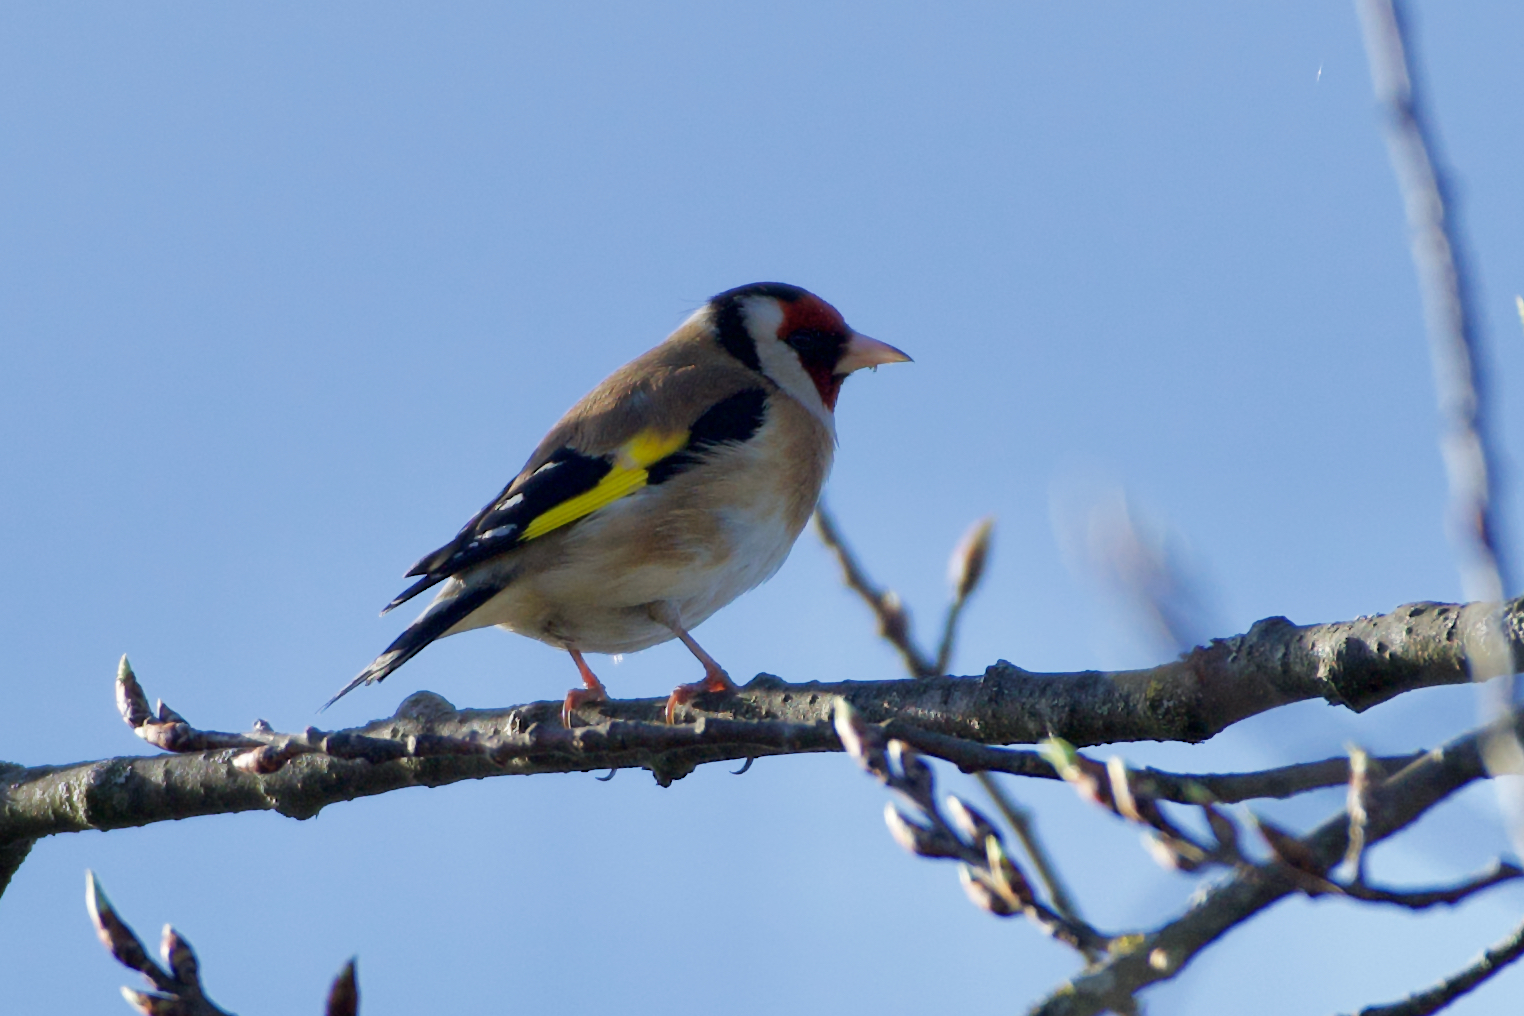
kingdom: Animalia
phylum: Chordata
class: Aves
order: Passeriformes
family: Fringillidae
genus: Carduelis
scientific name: Carduelis carduelis
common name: European goldfinch
